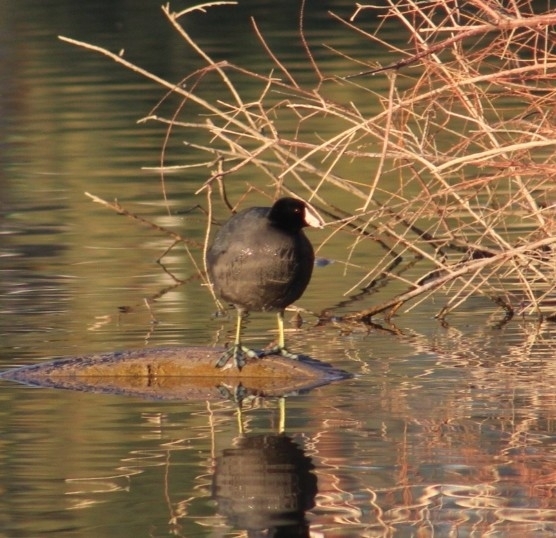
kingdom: Animalia
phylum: Chordata
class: Aves
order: Gruiformes
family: Rallidae
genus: Fulica
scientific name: Fulica americana
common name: American coot
